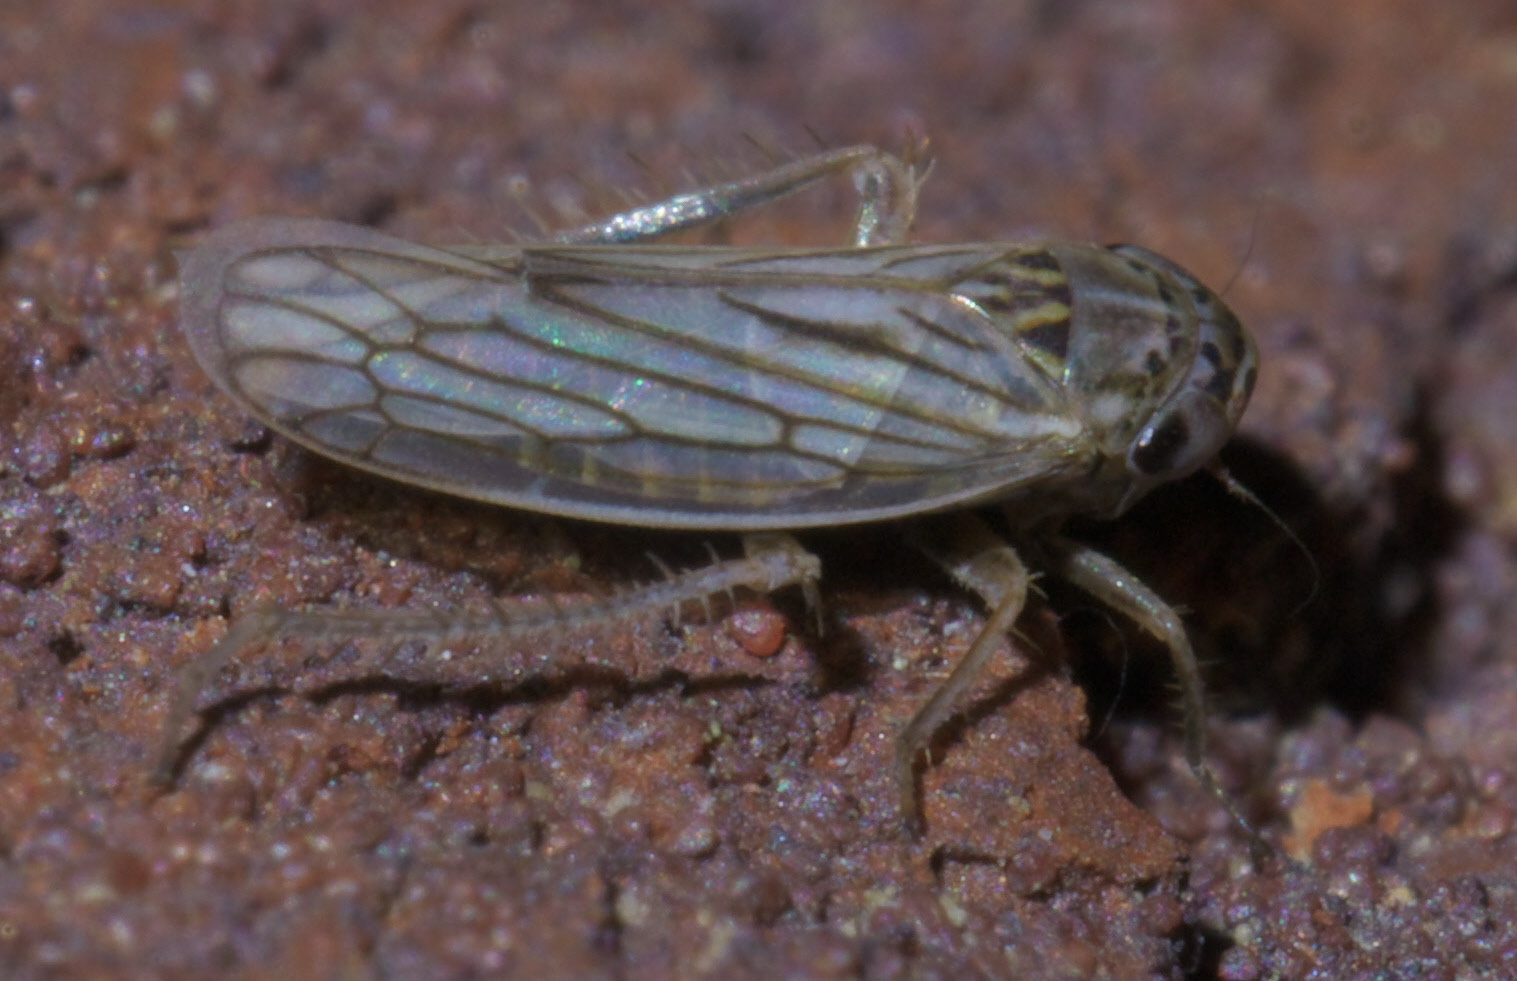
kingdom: Animalia
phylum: Arthropoda
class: Insecta
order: Hemiptera
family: Cicadellidae
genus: Exitianus
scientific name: Exitianus exitiosus
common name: Gray lawn leafhopper
